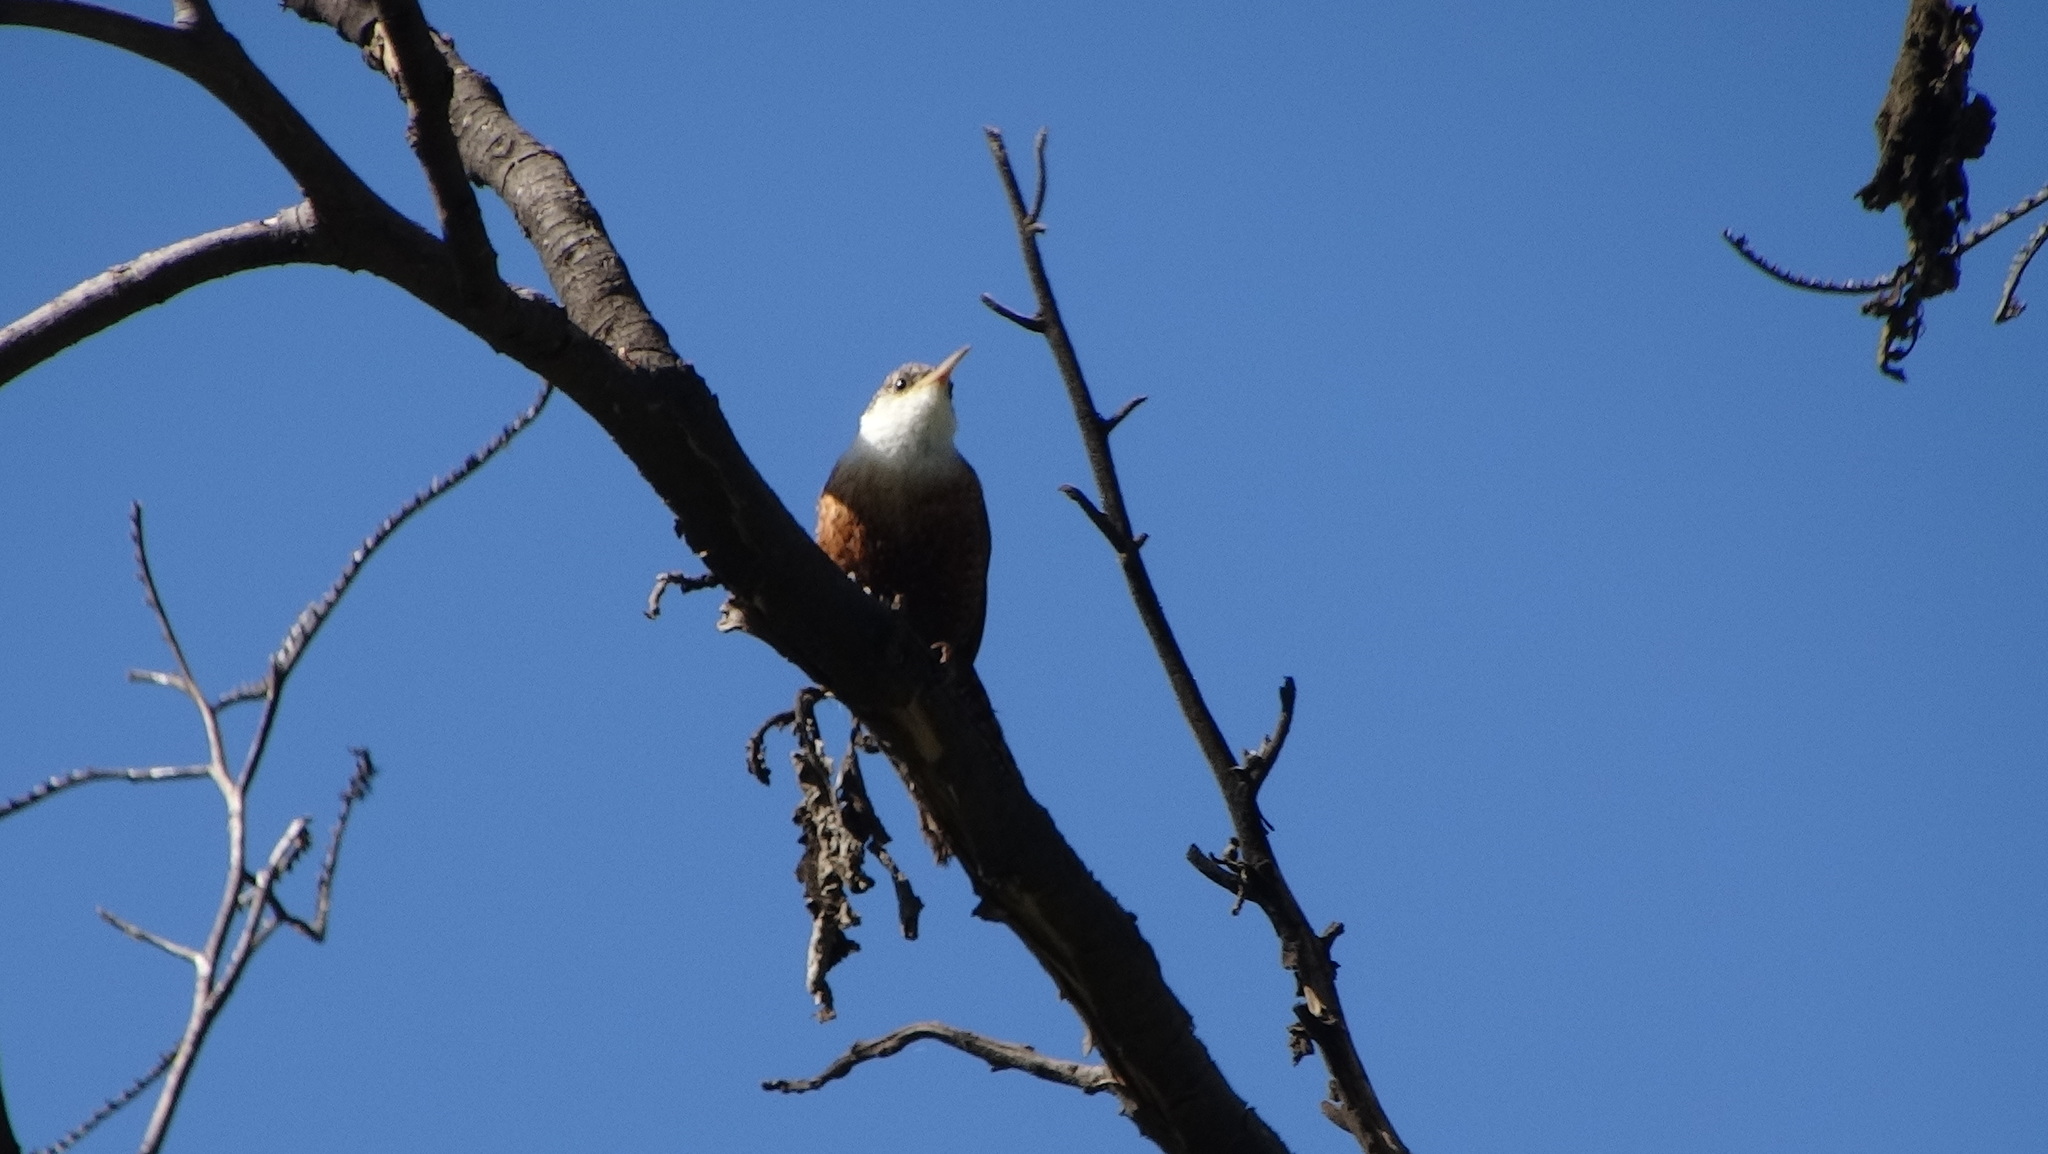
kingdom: Animalia
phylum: Chordata
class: Aves
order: Passeriformes
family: Troglodytidae
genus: Catherpes
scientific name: Catherpes mexicanus
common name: Canyon wren
